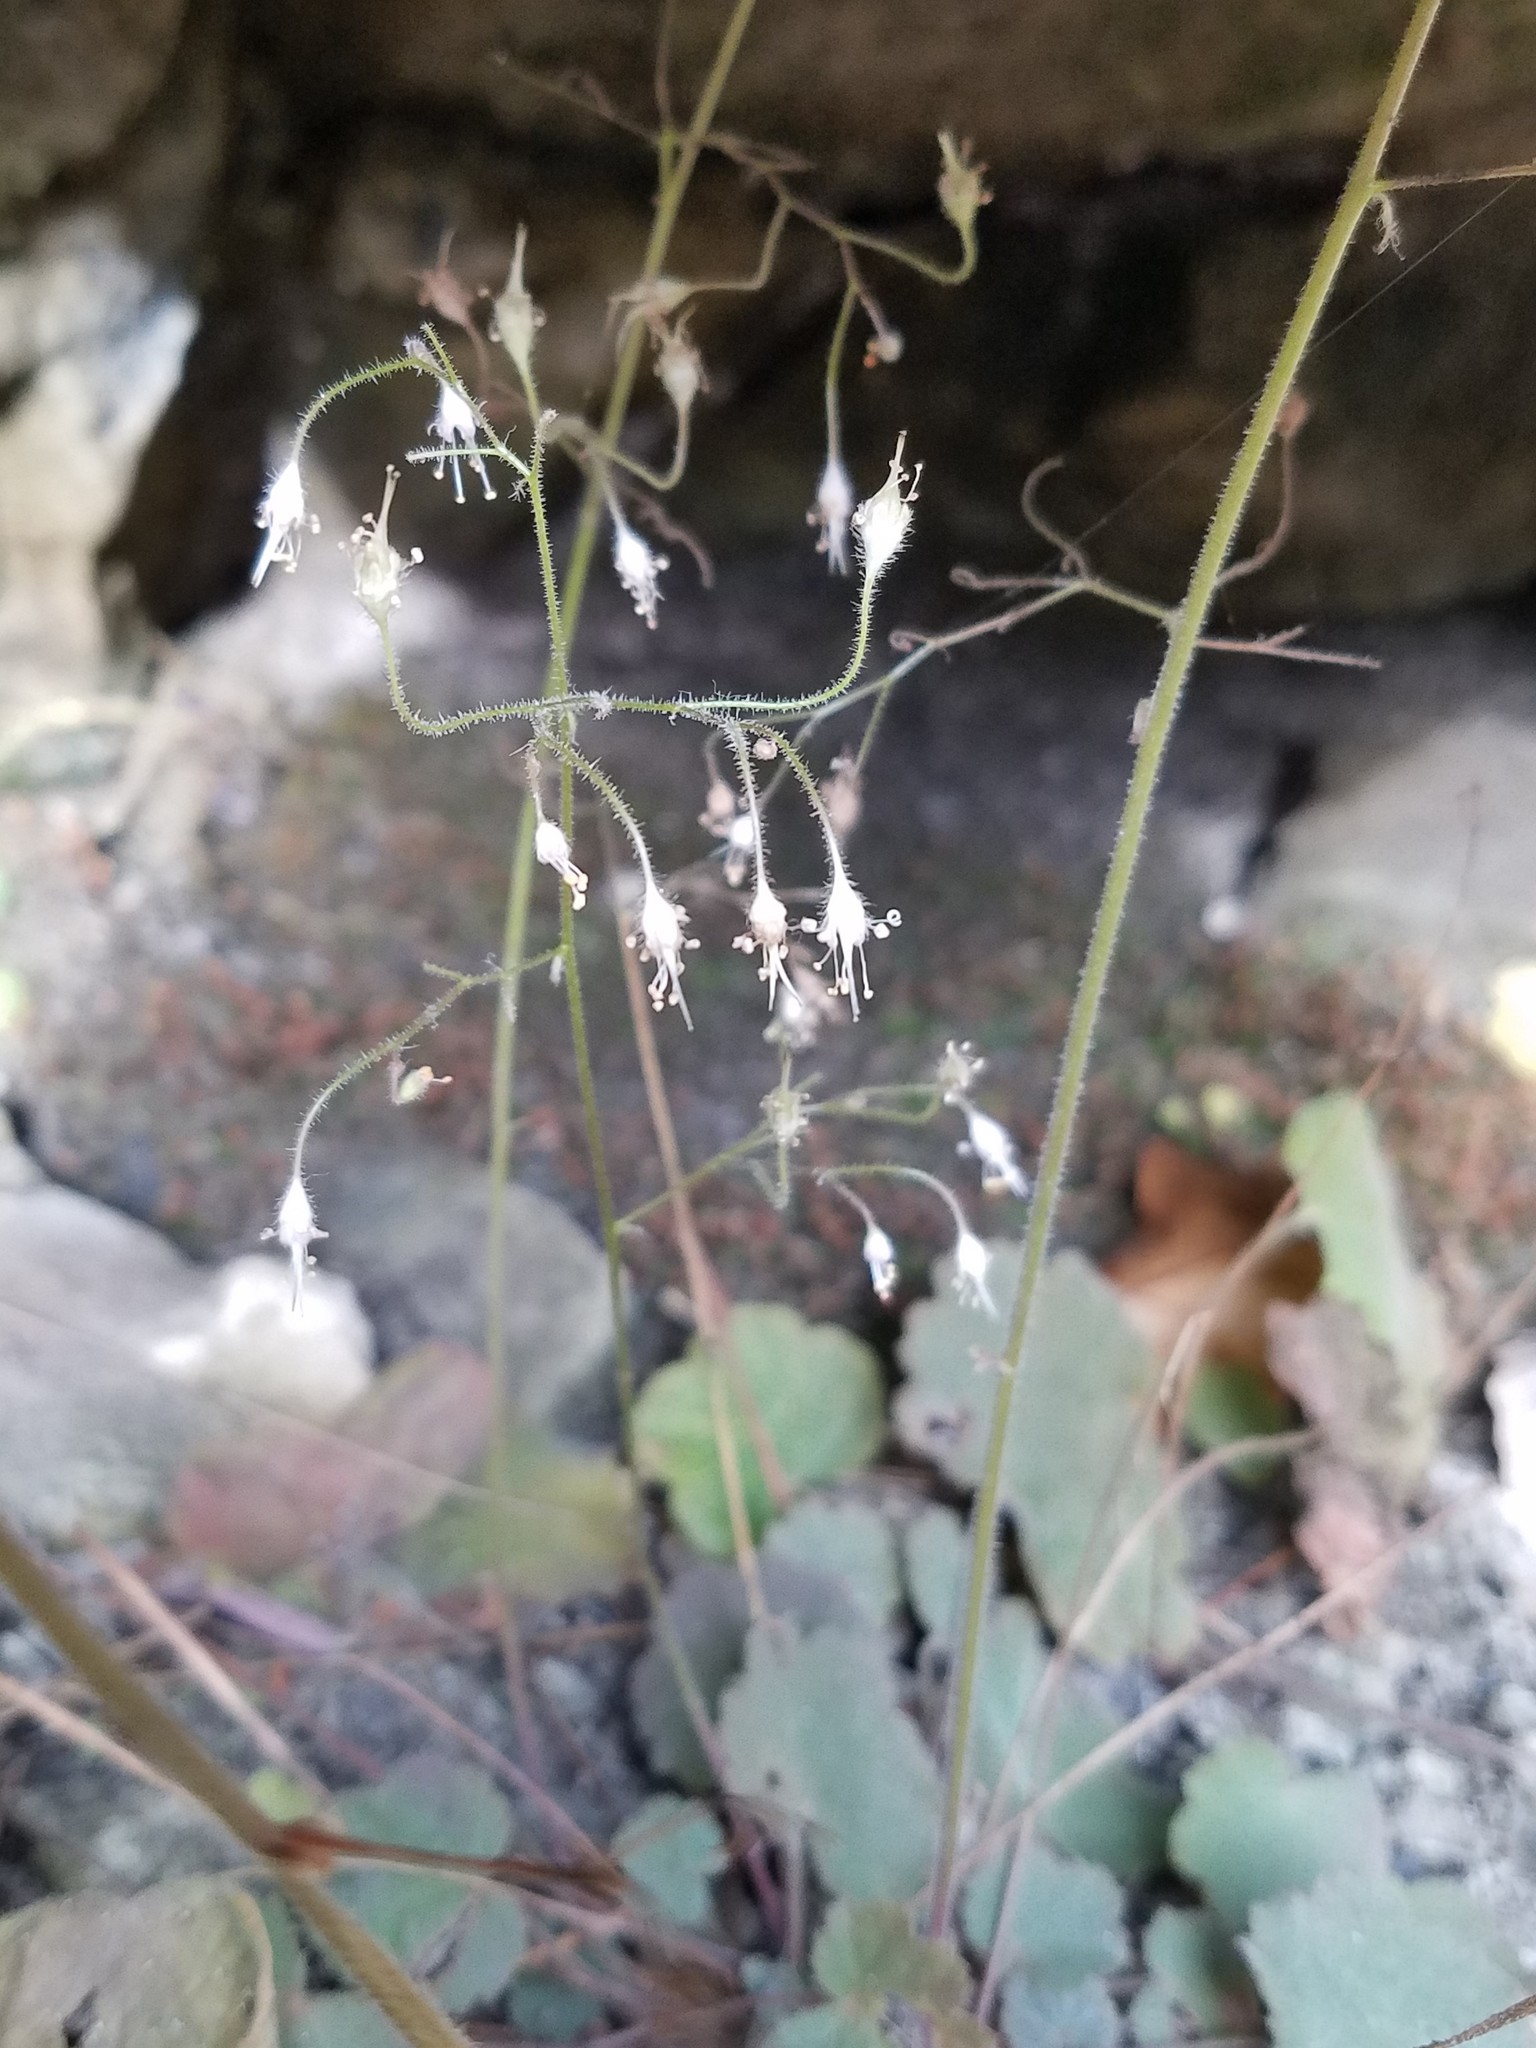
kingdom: Plantae
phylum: Tracheophyta
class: Magnoliopsida
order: Saxifragales
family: Saxifragaceae
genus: Heuchera
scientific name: Heuchera parviflora
